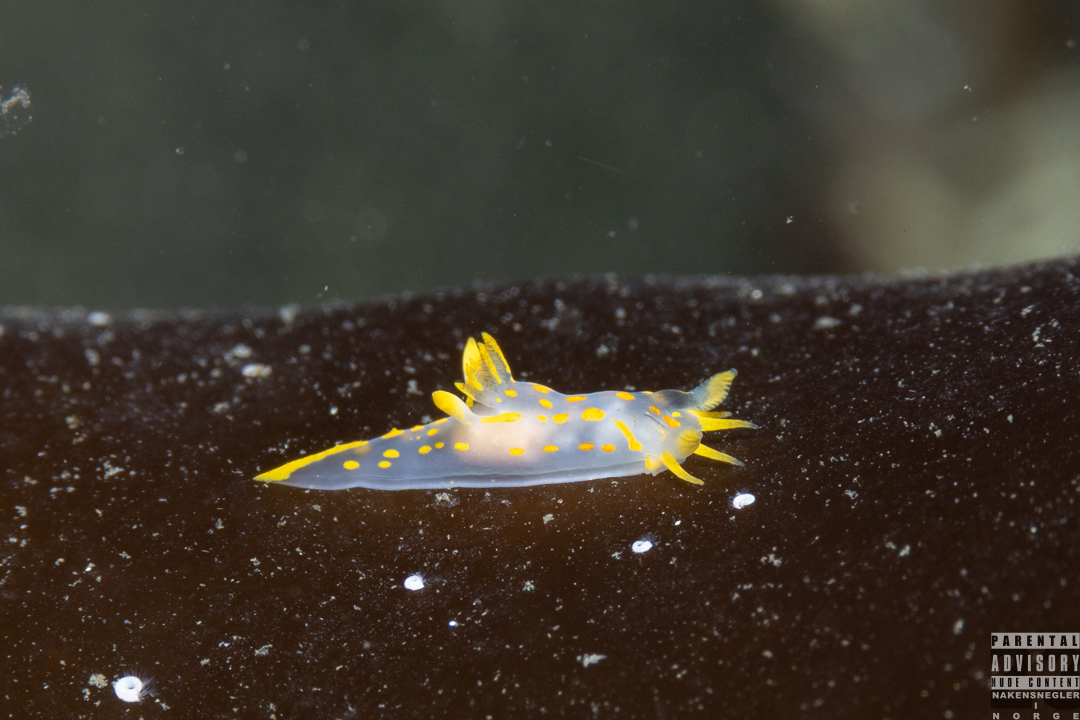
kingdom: Animalia
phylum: Mollusca
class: Gastropoda
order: Nudibranchia
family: Polyceridae
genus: Polycera
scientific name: Polycera quadrilineata
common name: Four-striped polycera
